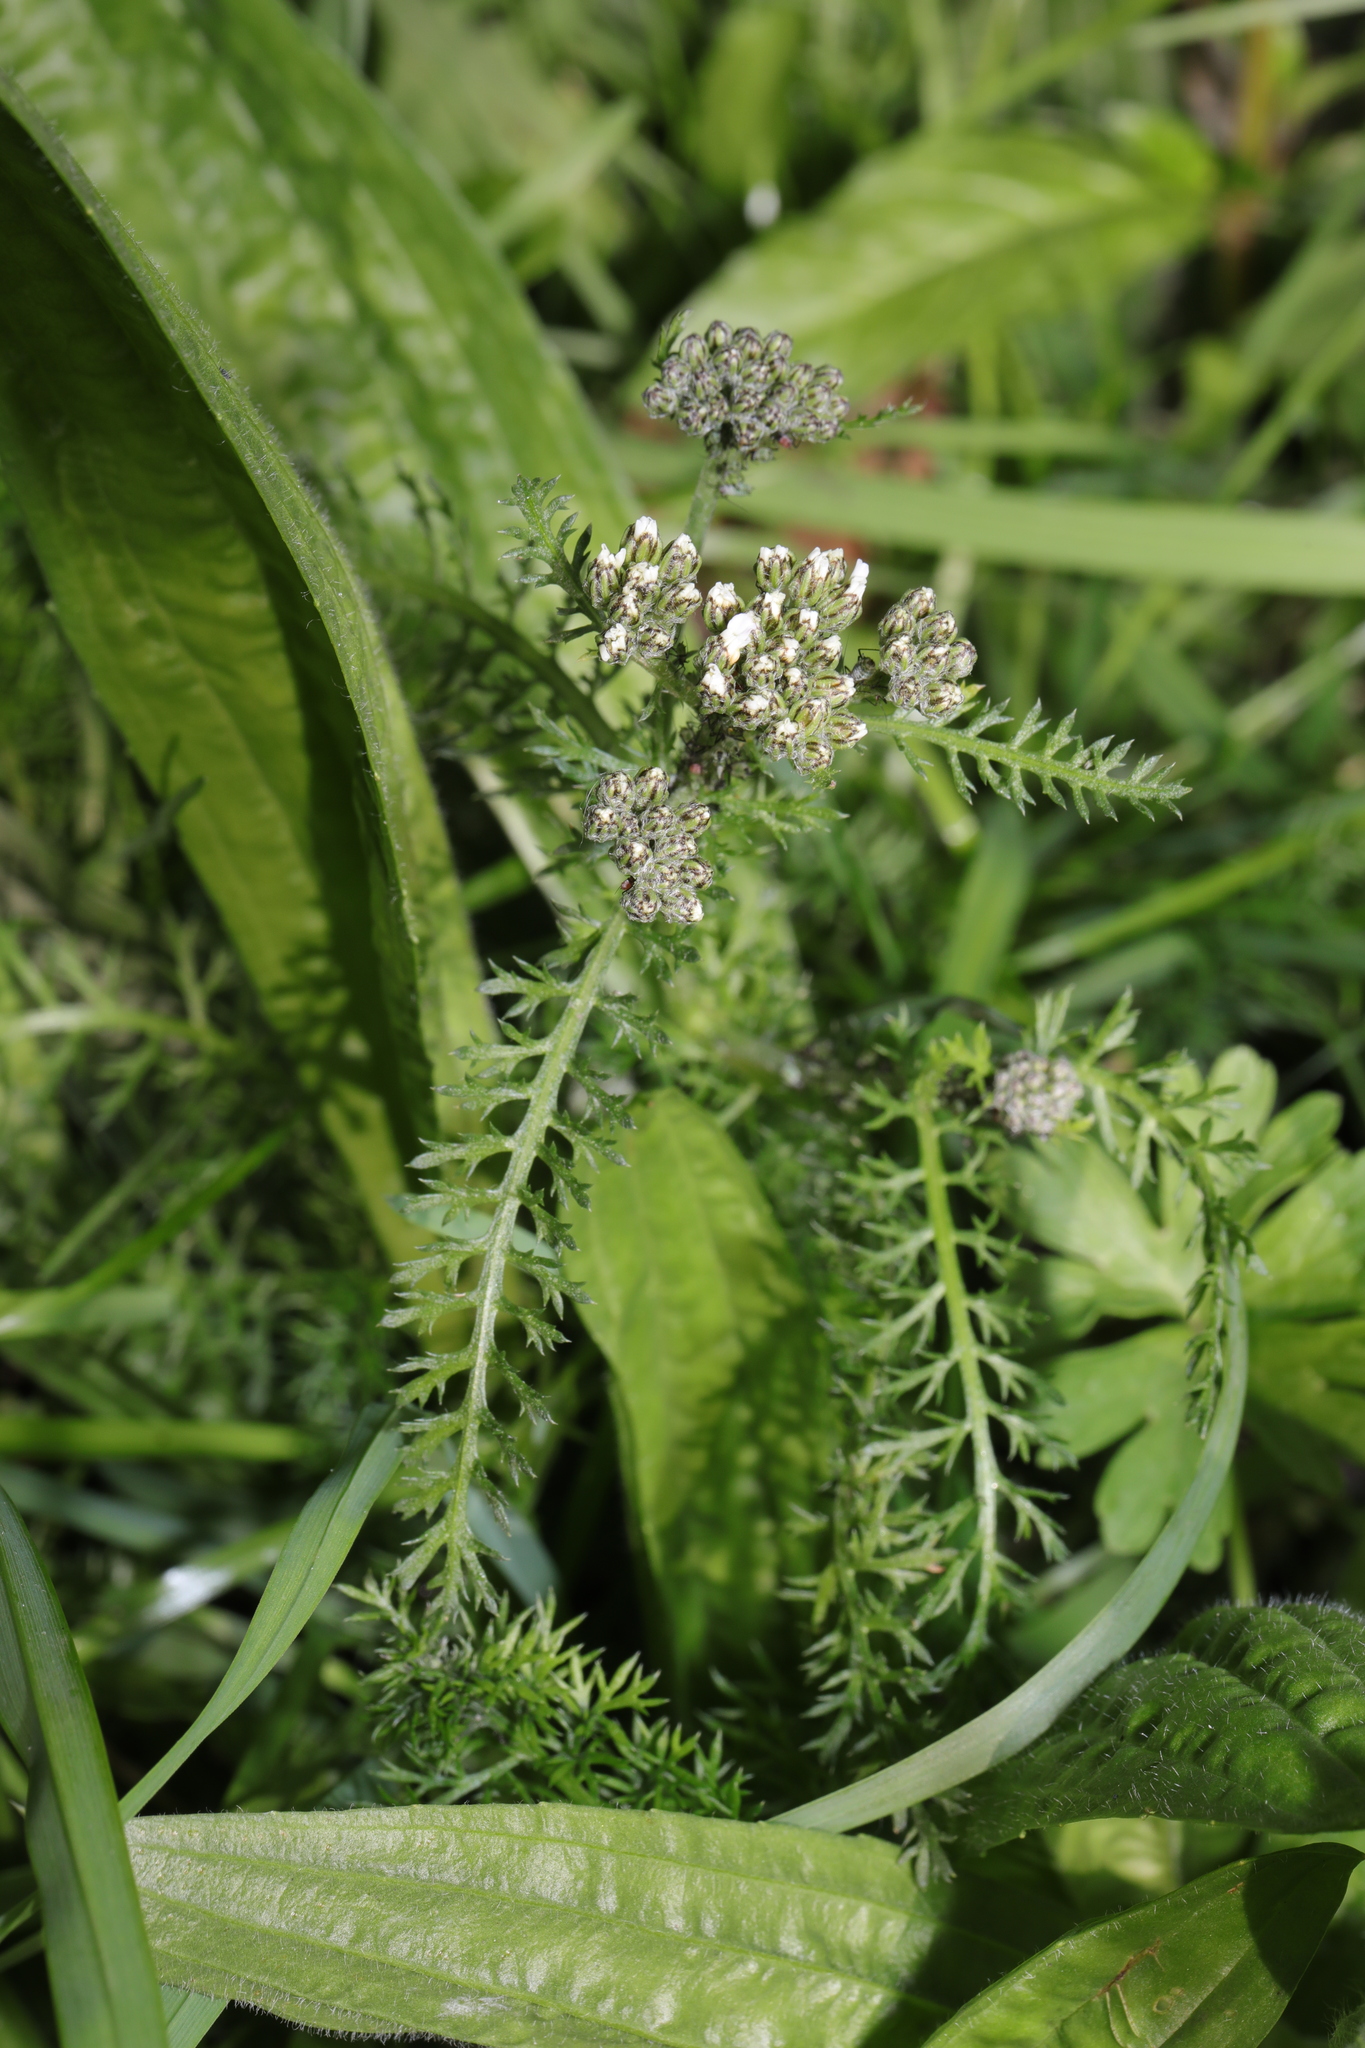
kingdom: Plantae
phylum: Tracheophyta
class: Magnoliopsida
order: Asterales
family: Asteraceae
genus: Achillea
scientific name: Achillea millefolium
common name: Yarrow
